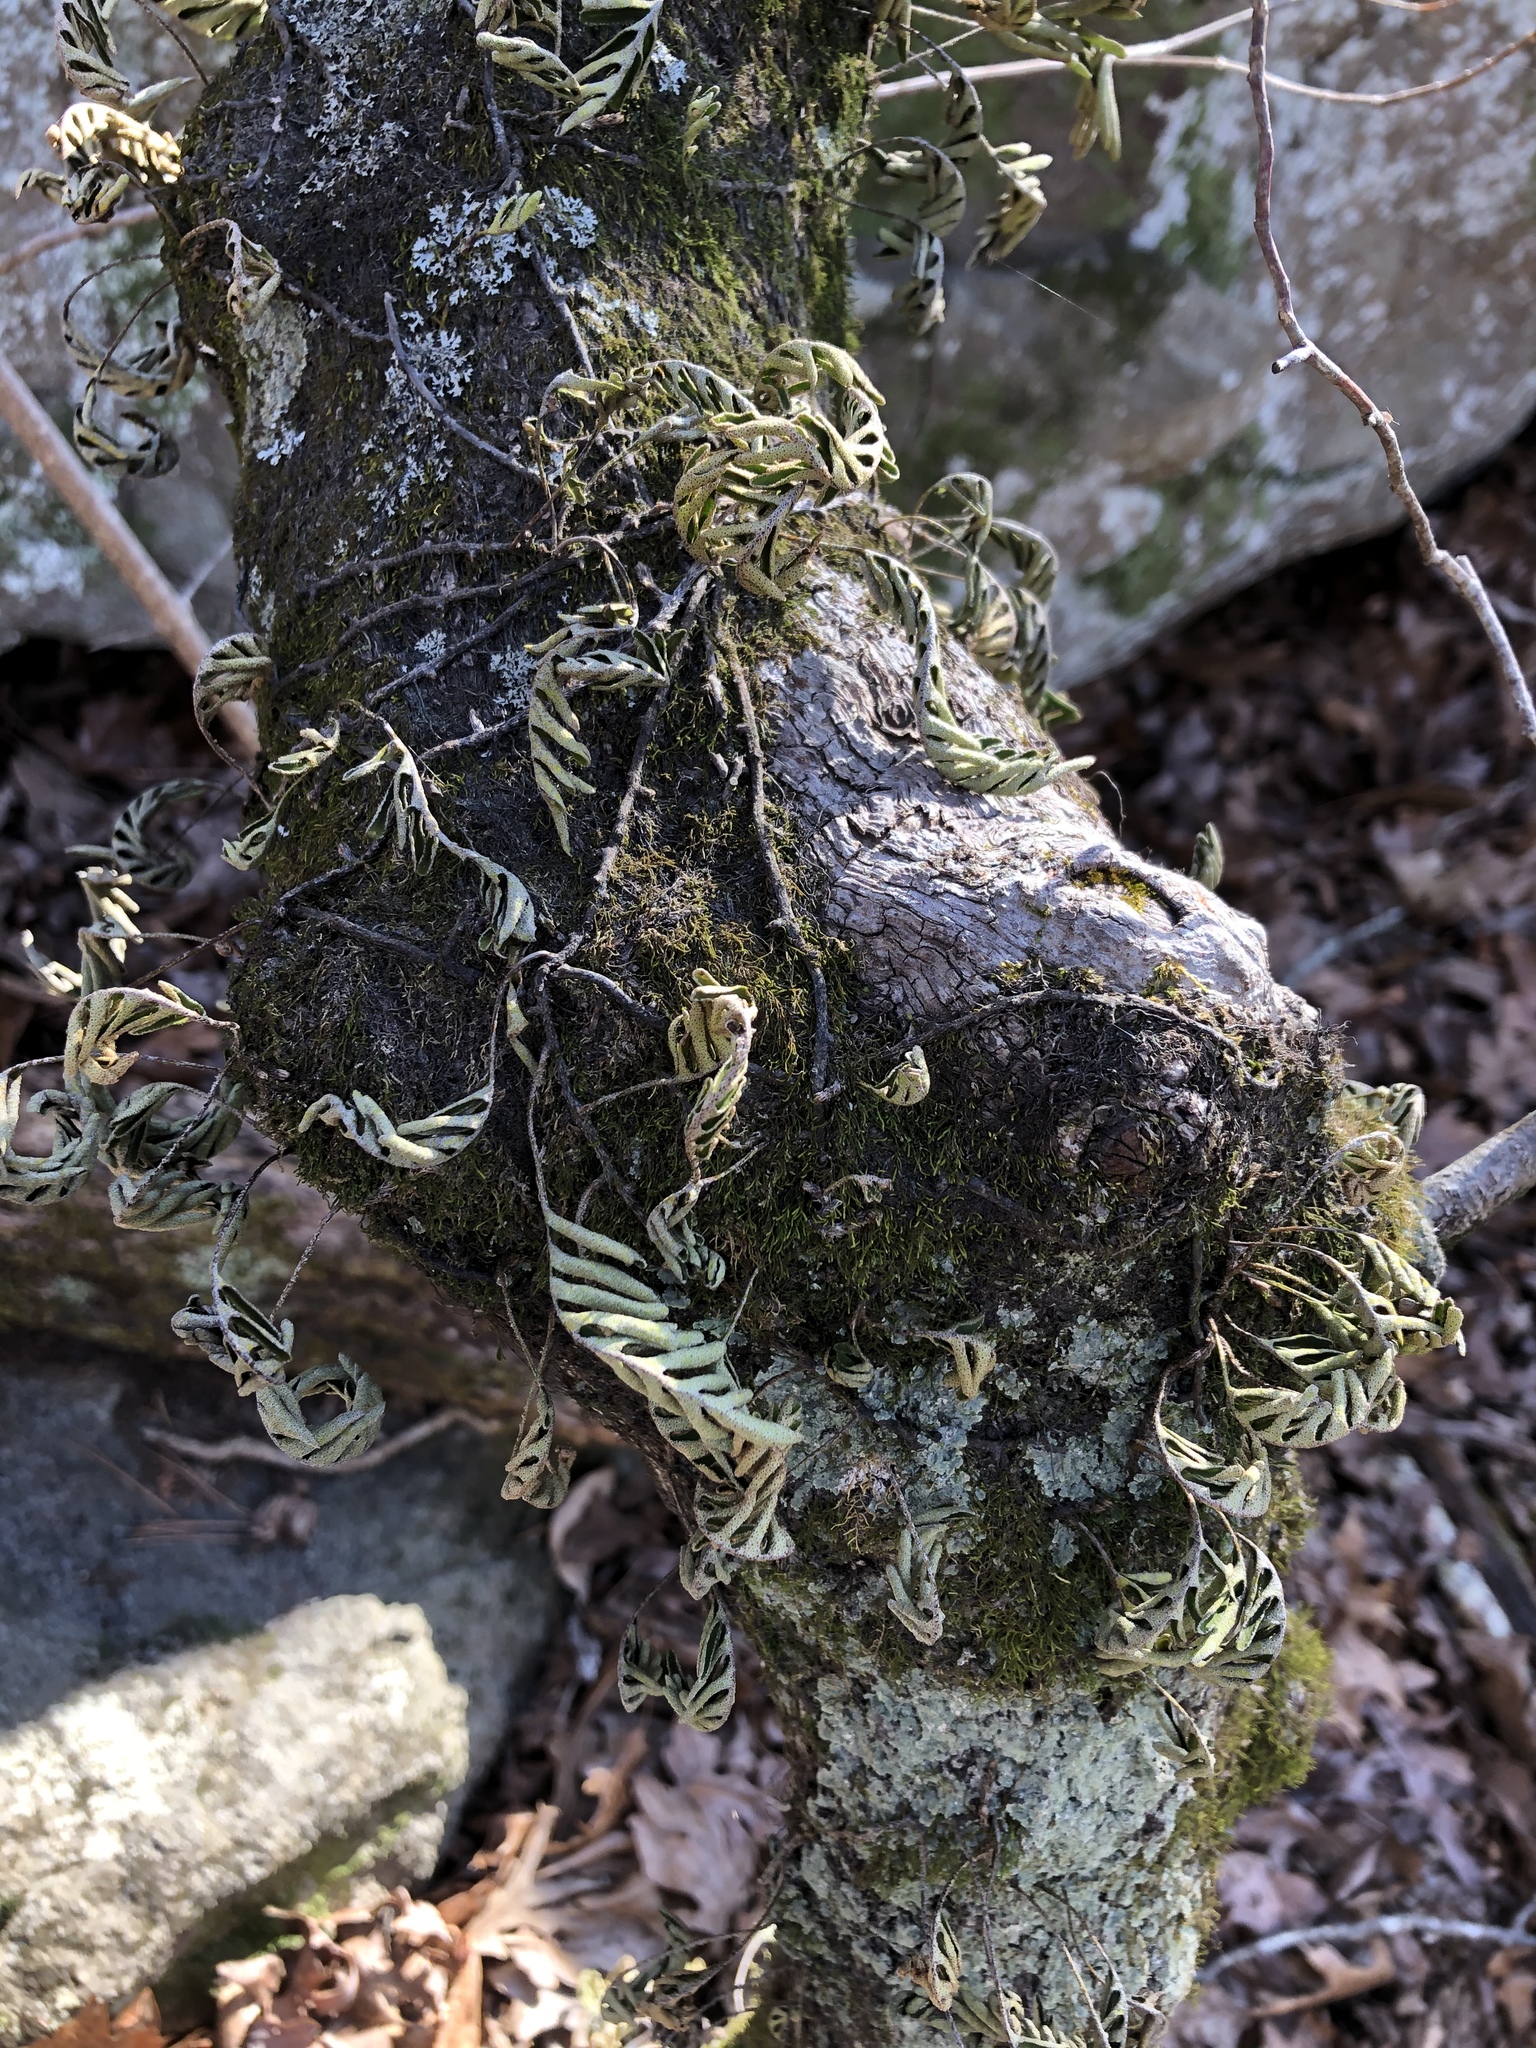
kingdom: Plantae
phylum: Tracheophyta
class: Polypodiopsida
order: Polypodiales
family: Polypodiaceae
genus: Pleopeltis
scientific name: Pleopeltis michauxiana
